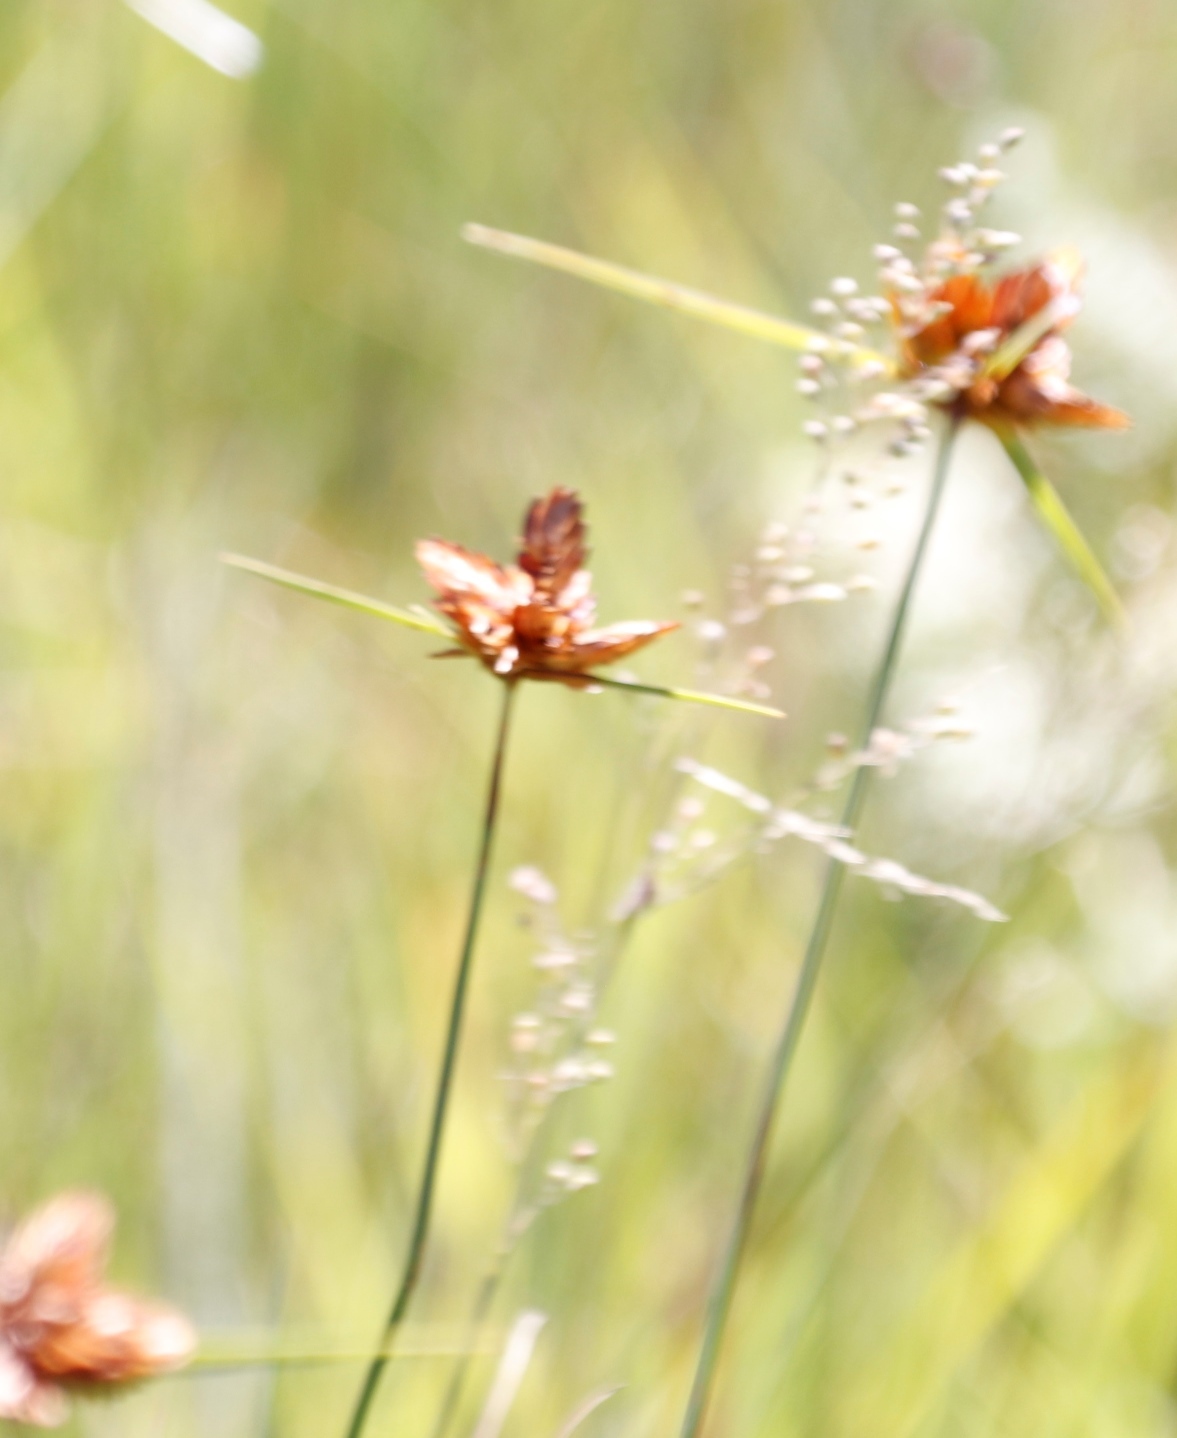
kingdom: Plantae
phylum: Tracheophyta
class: Liliopsida
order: Poales
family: Cyperaceae
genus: Cyperus
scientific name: Cyperus sphaerocephalus
